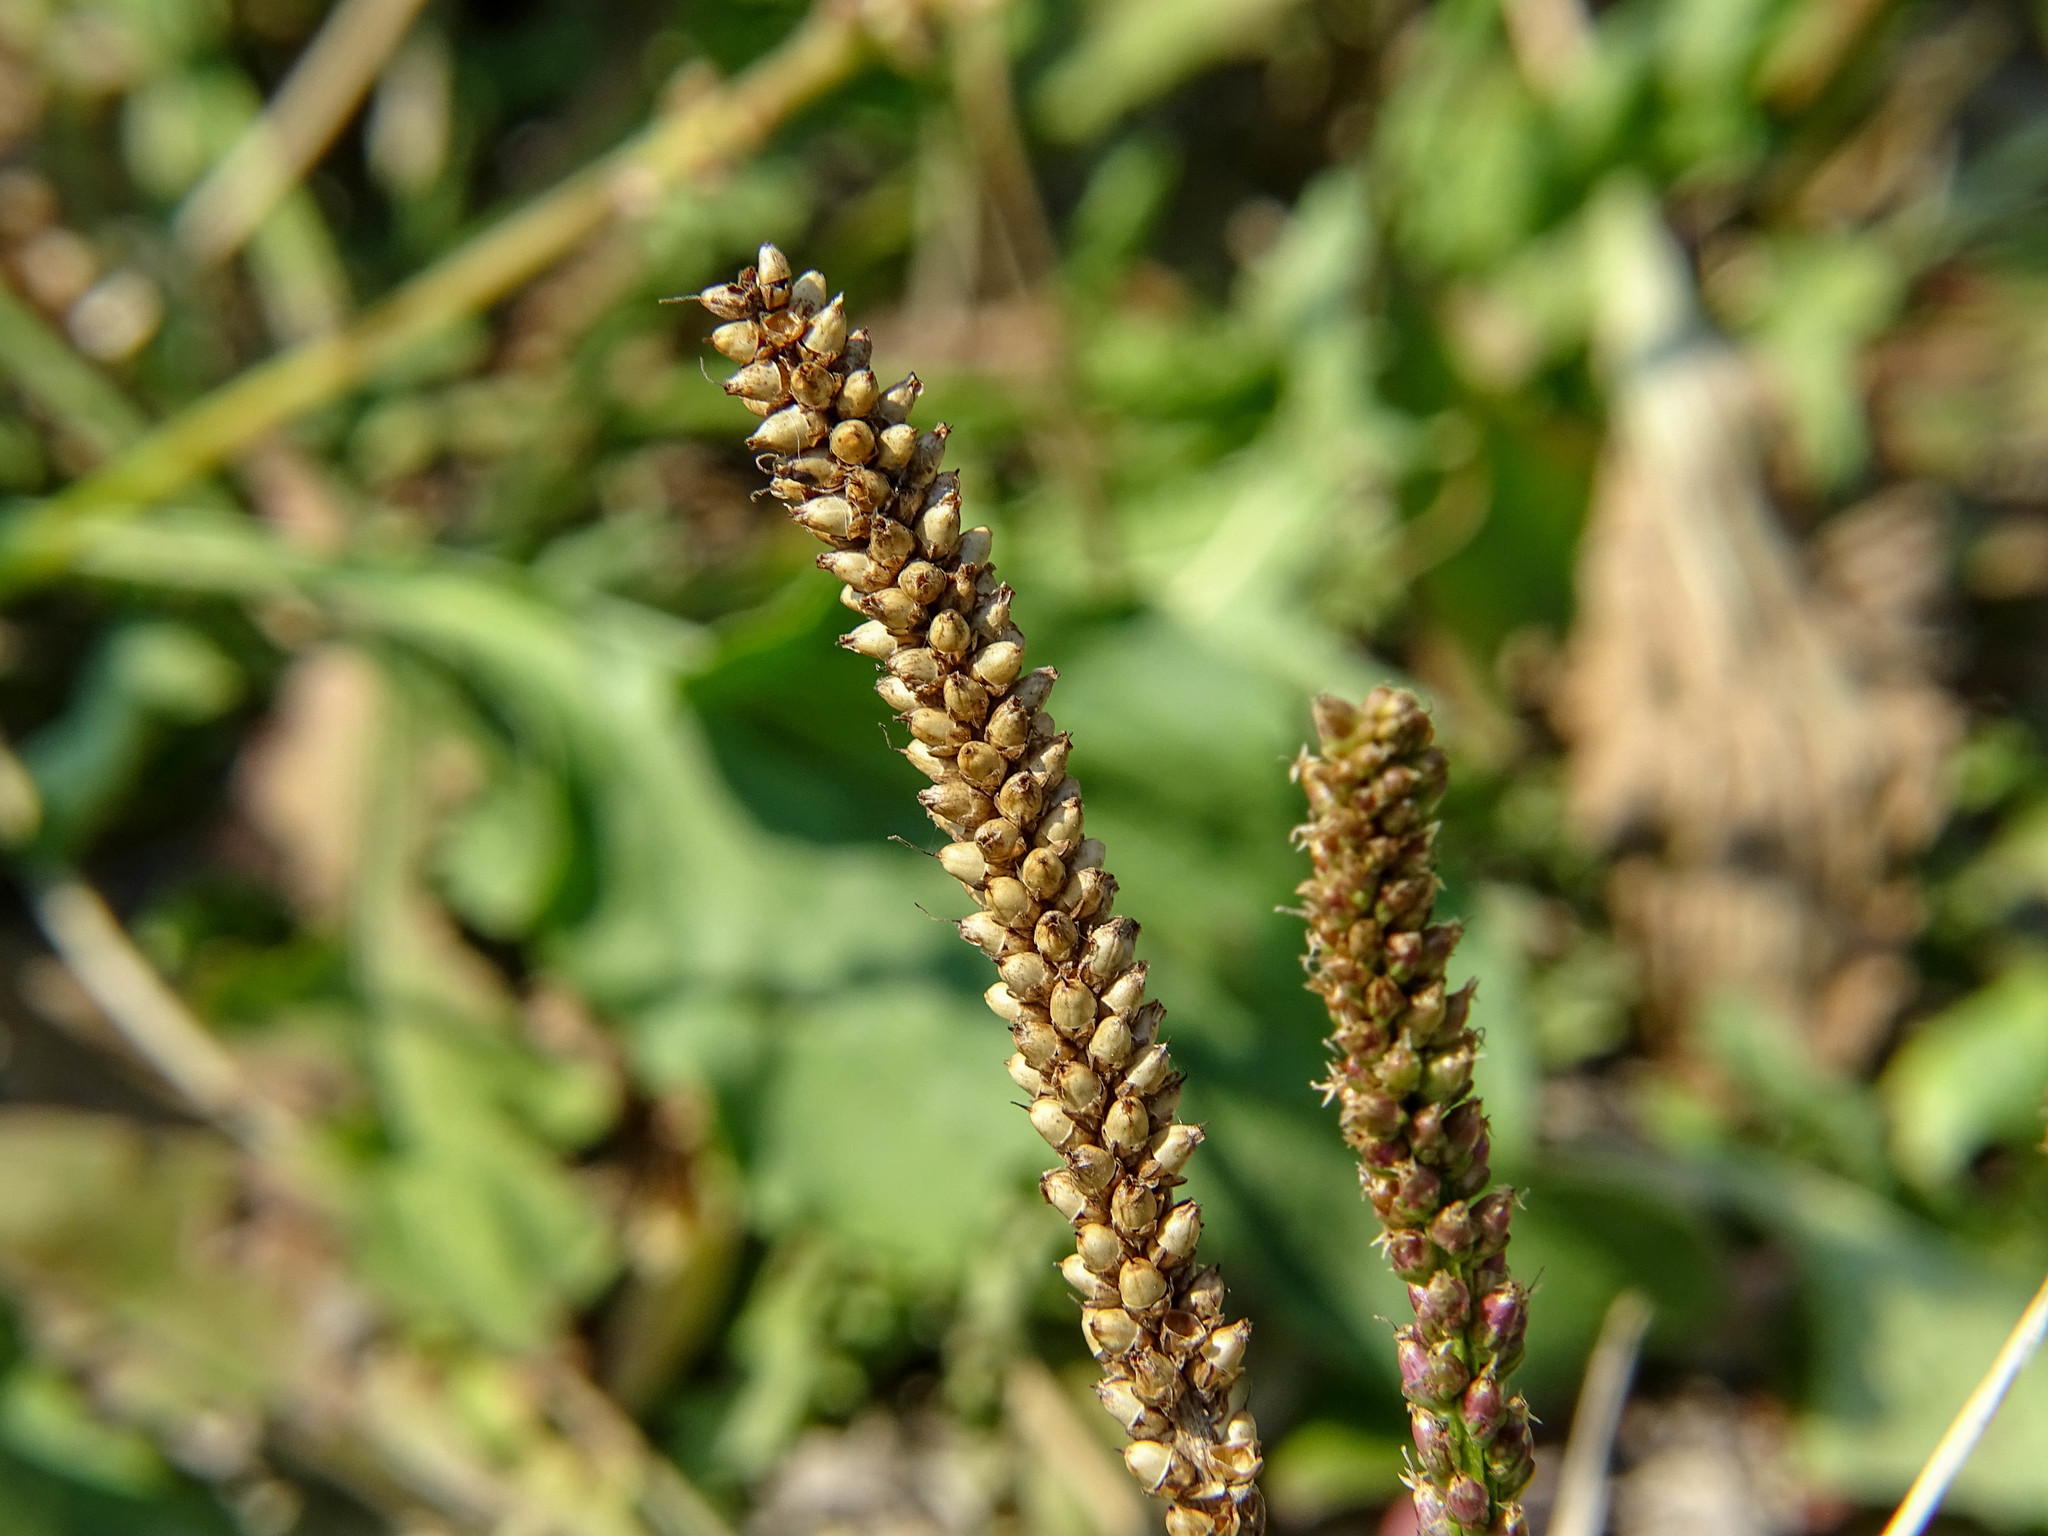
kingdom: Plantae
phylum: Tracheophyta
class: Magnoliopsida
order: Lamiales
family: Plantaginaceae
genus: Plantago
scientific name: Plantago major
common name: Common plantain
